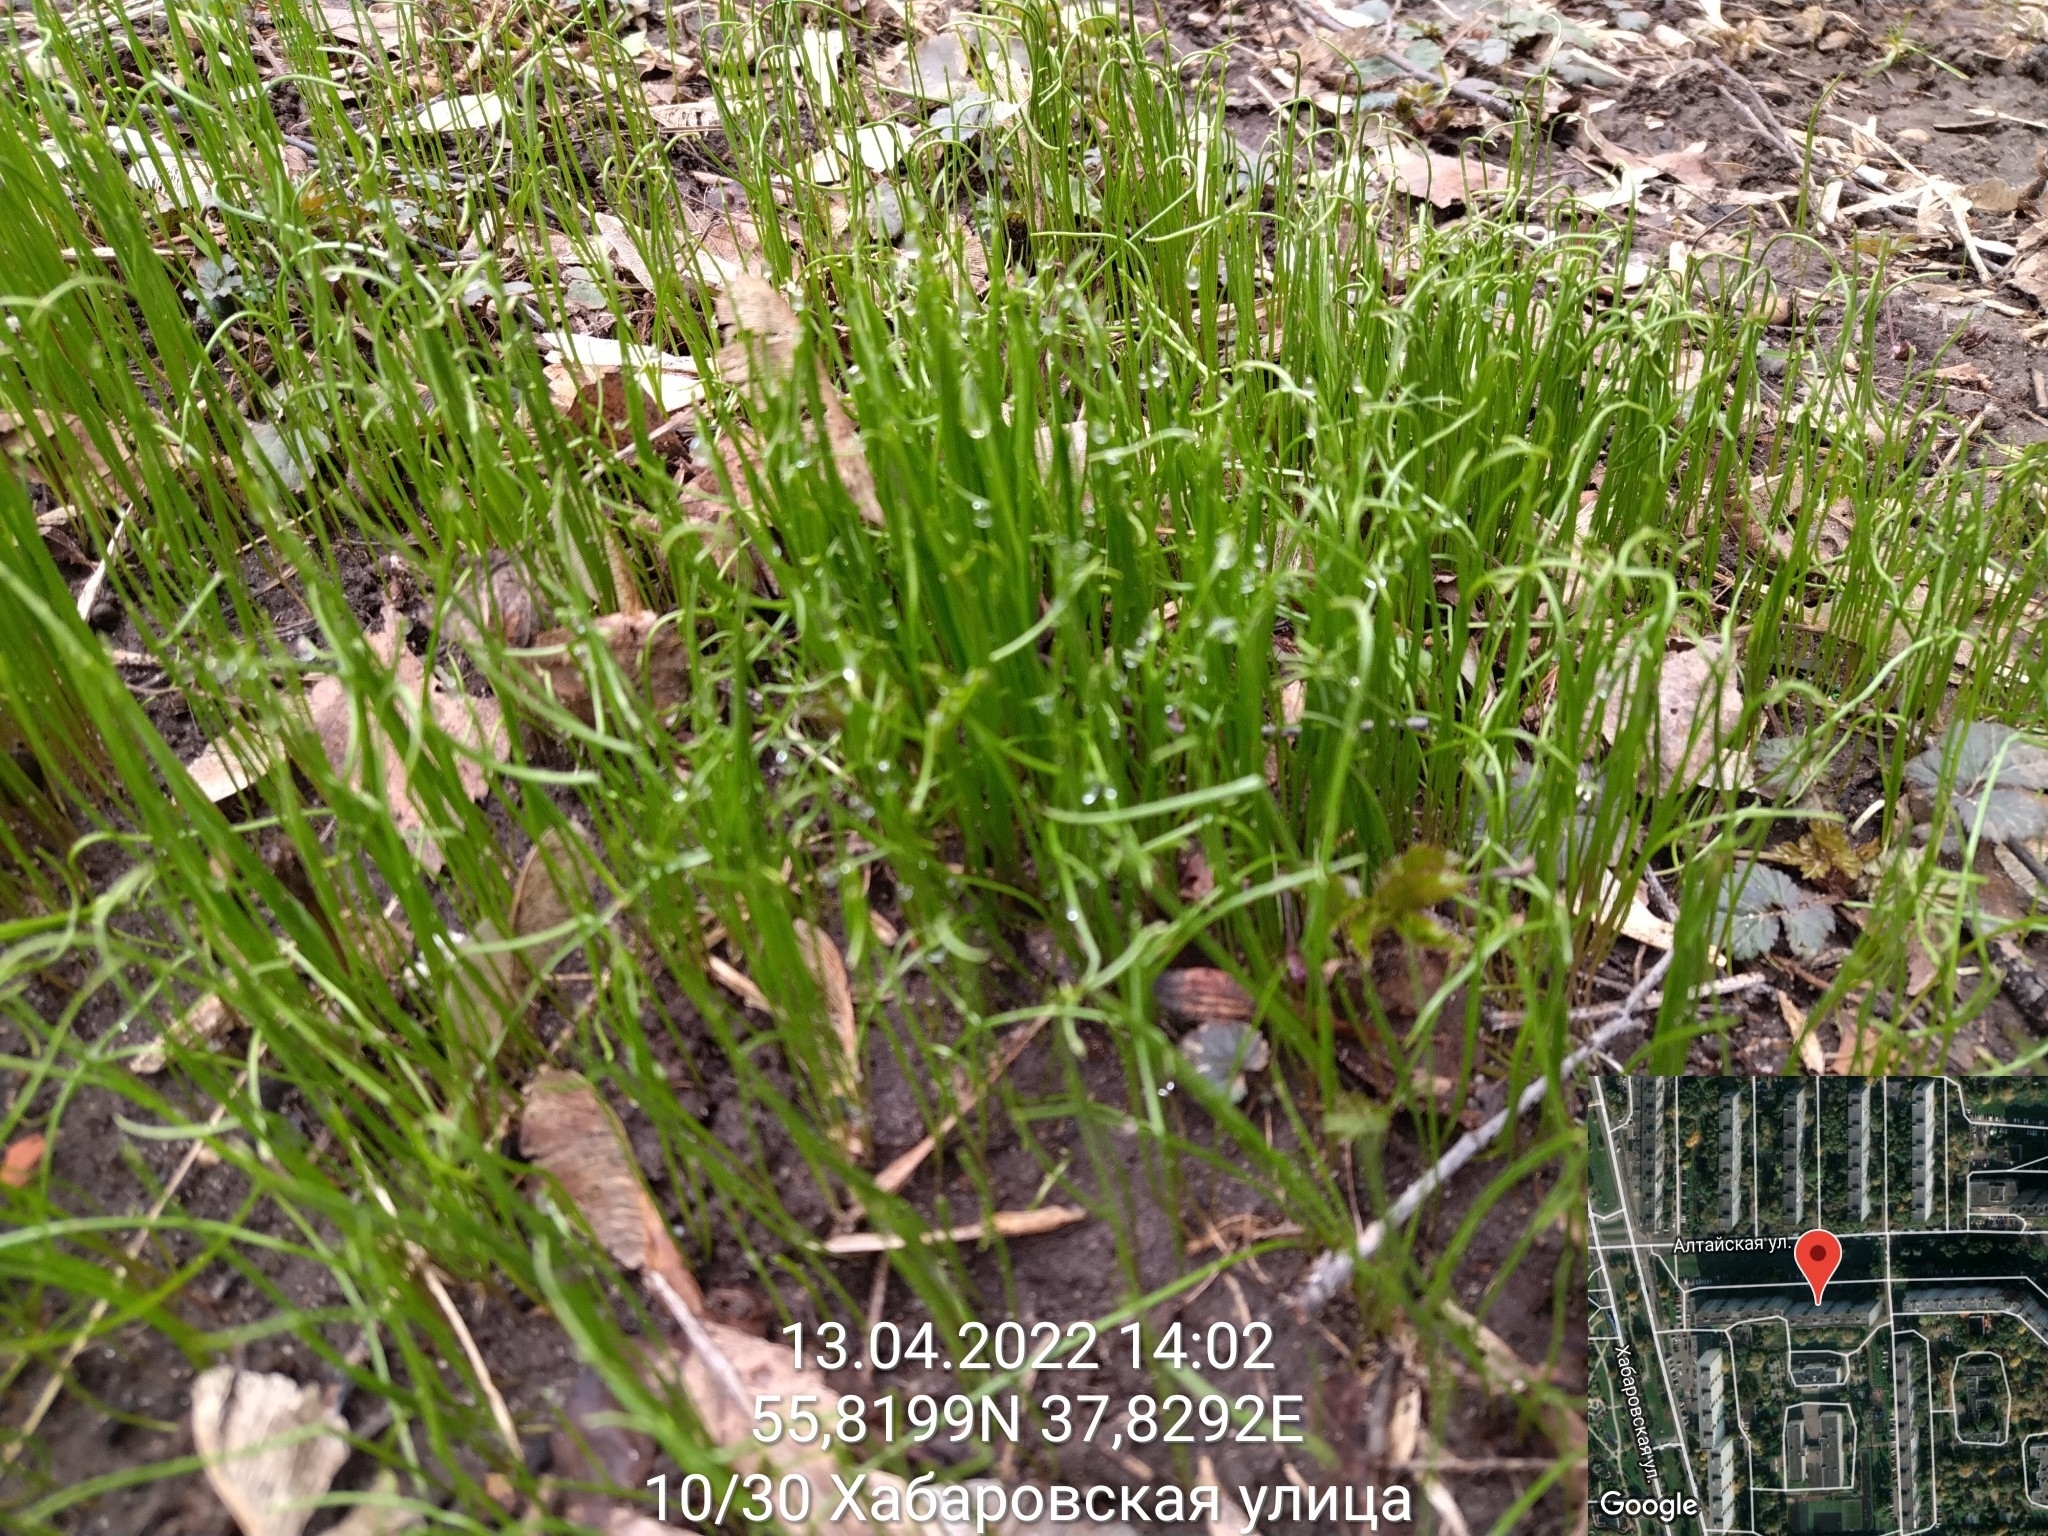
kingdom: Plantae
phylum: Tracheophyta
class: Liliopsida
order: Liliales
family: Liliaceae
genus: Gagea
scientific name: Gagea minima
